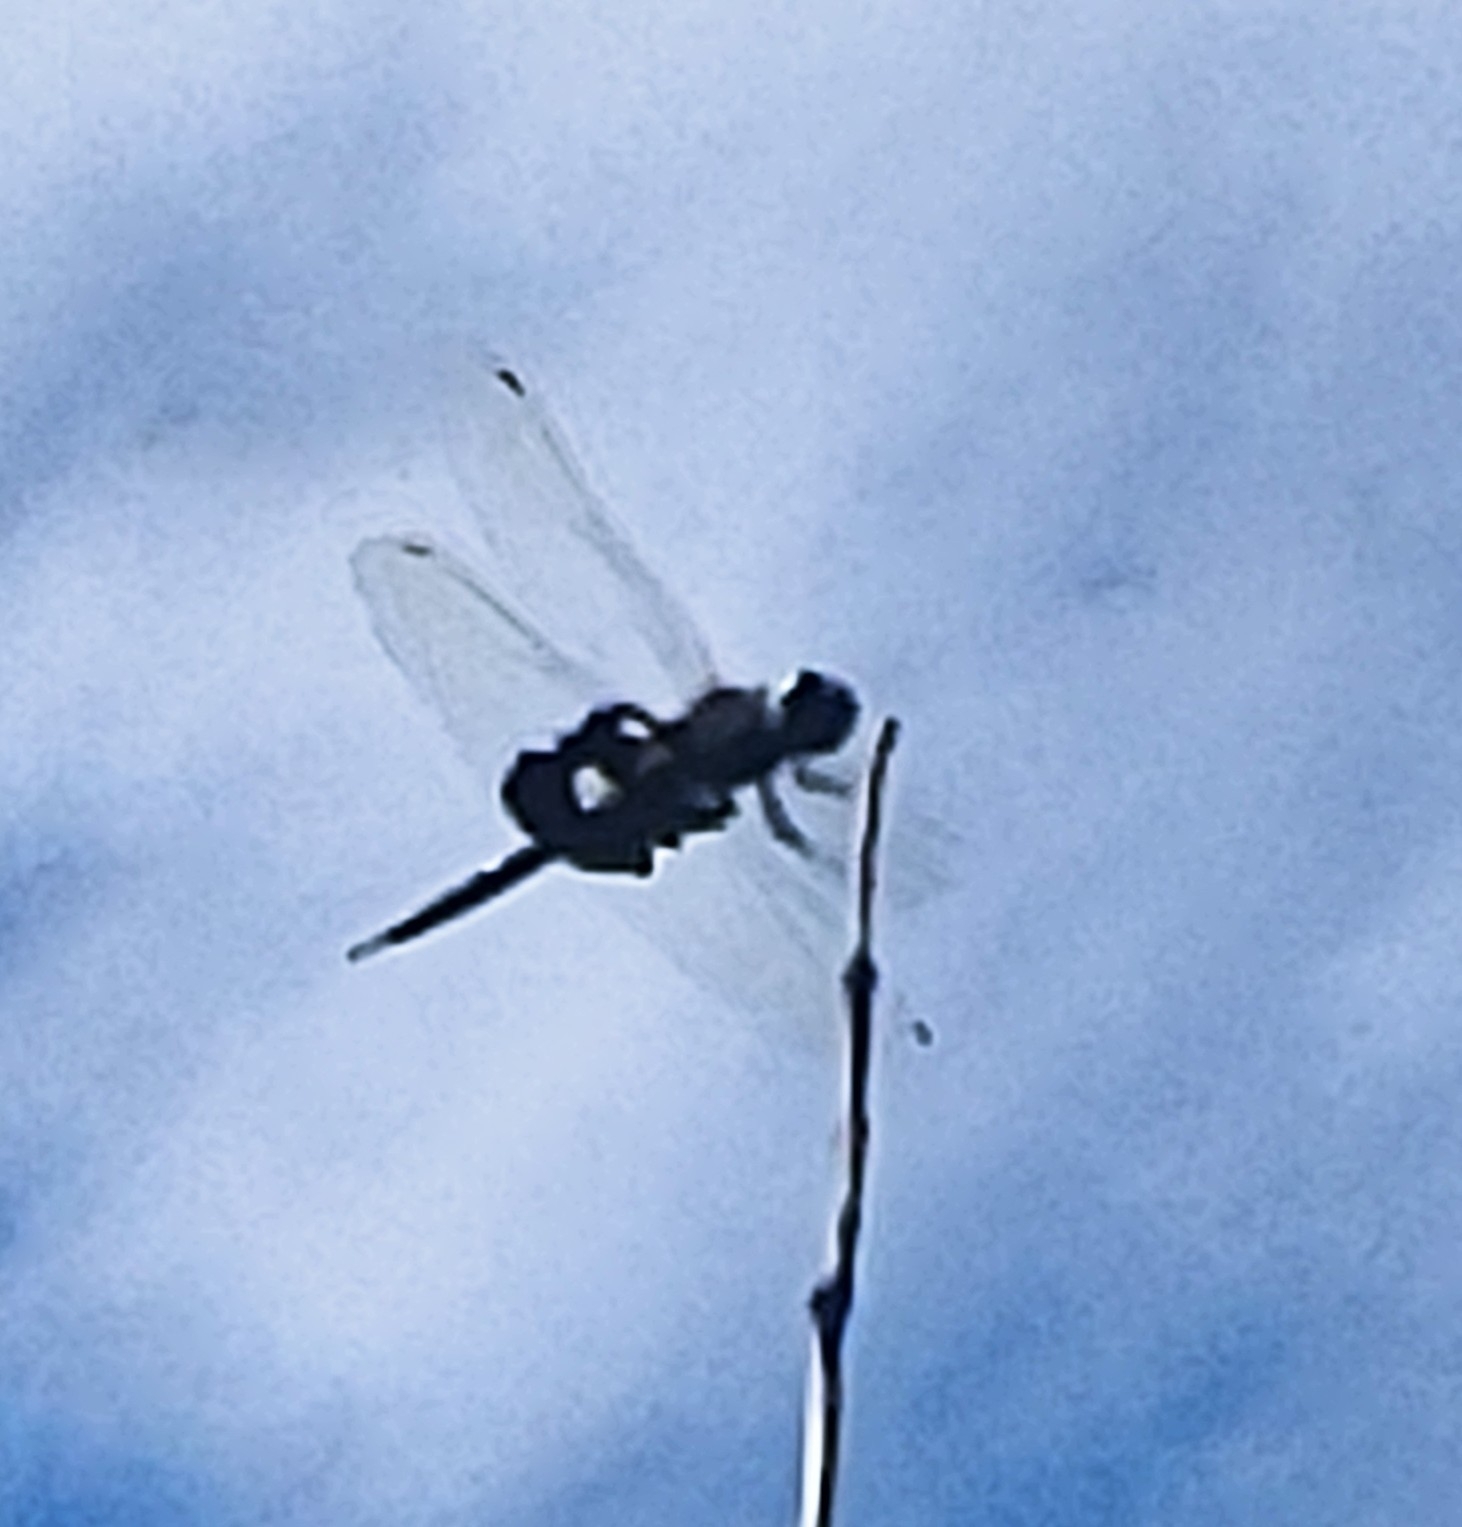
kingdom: Animalia
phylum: Arthropoda
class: Insecta
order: Odonata
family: Libellulidae
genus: Tramea
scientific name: Tramea lacerata
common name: Black saddlebags
